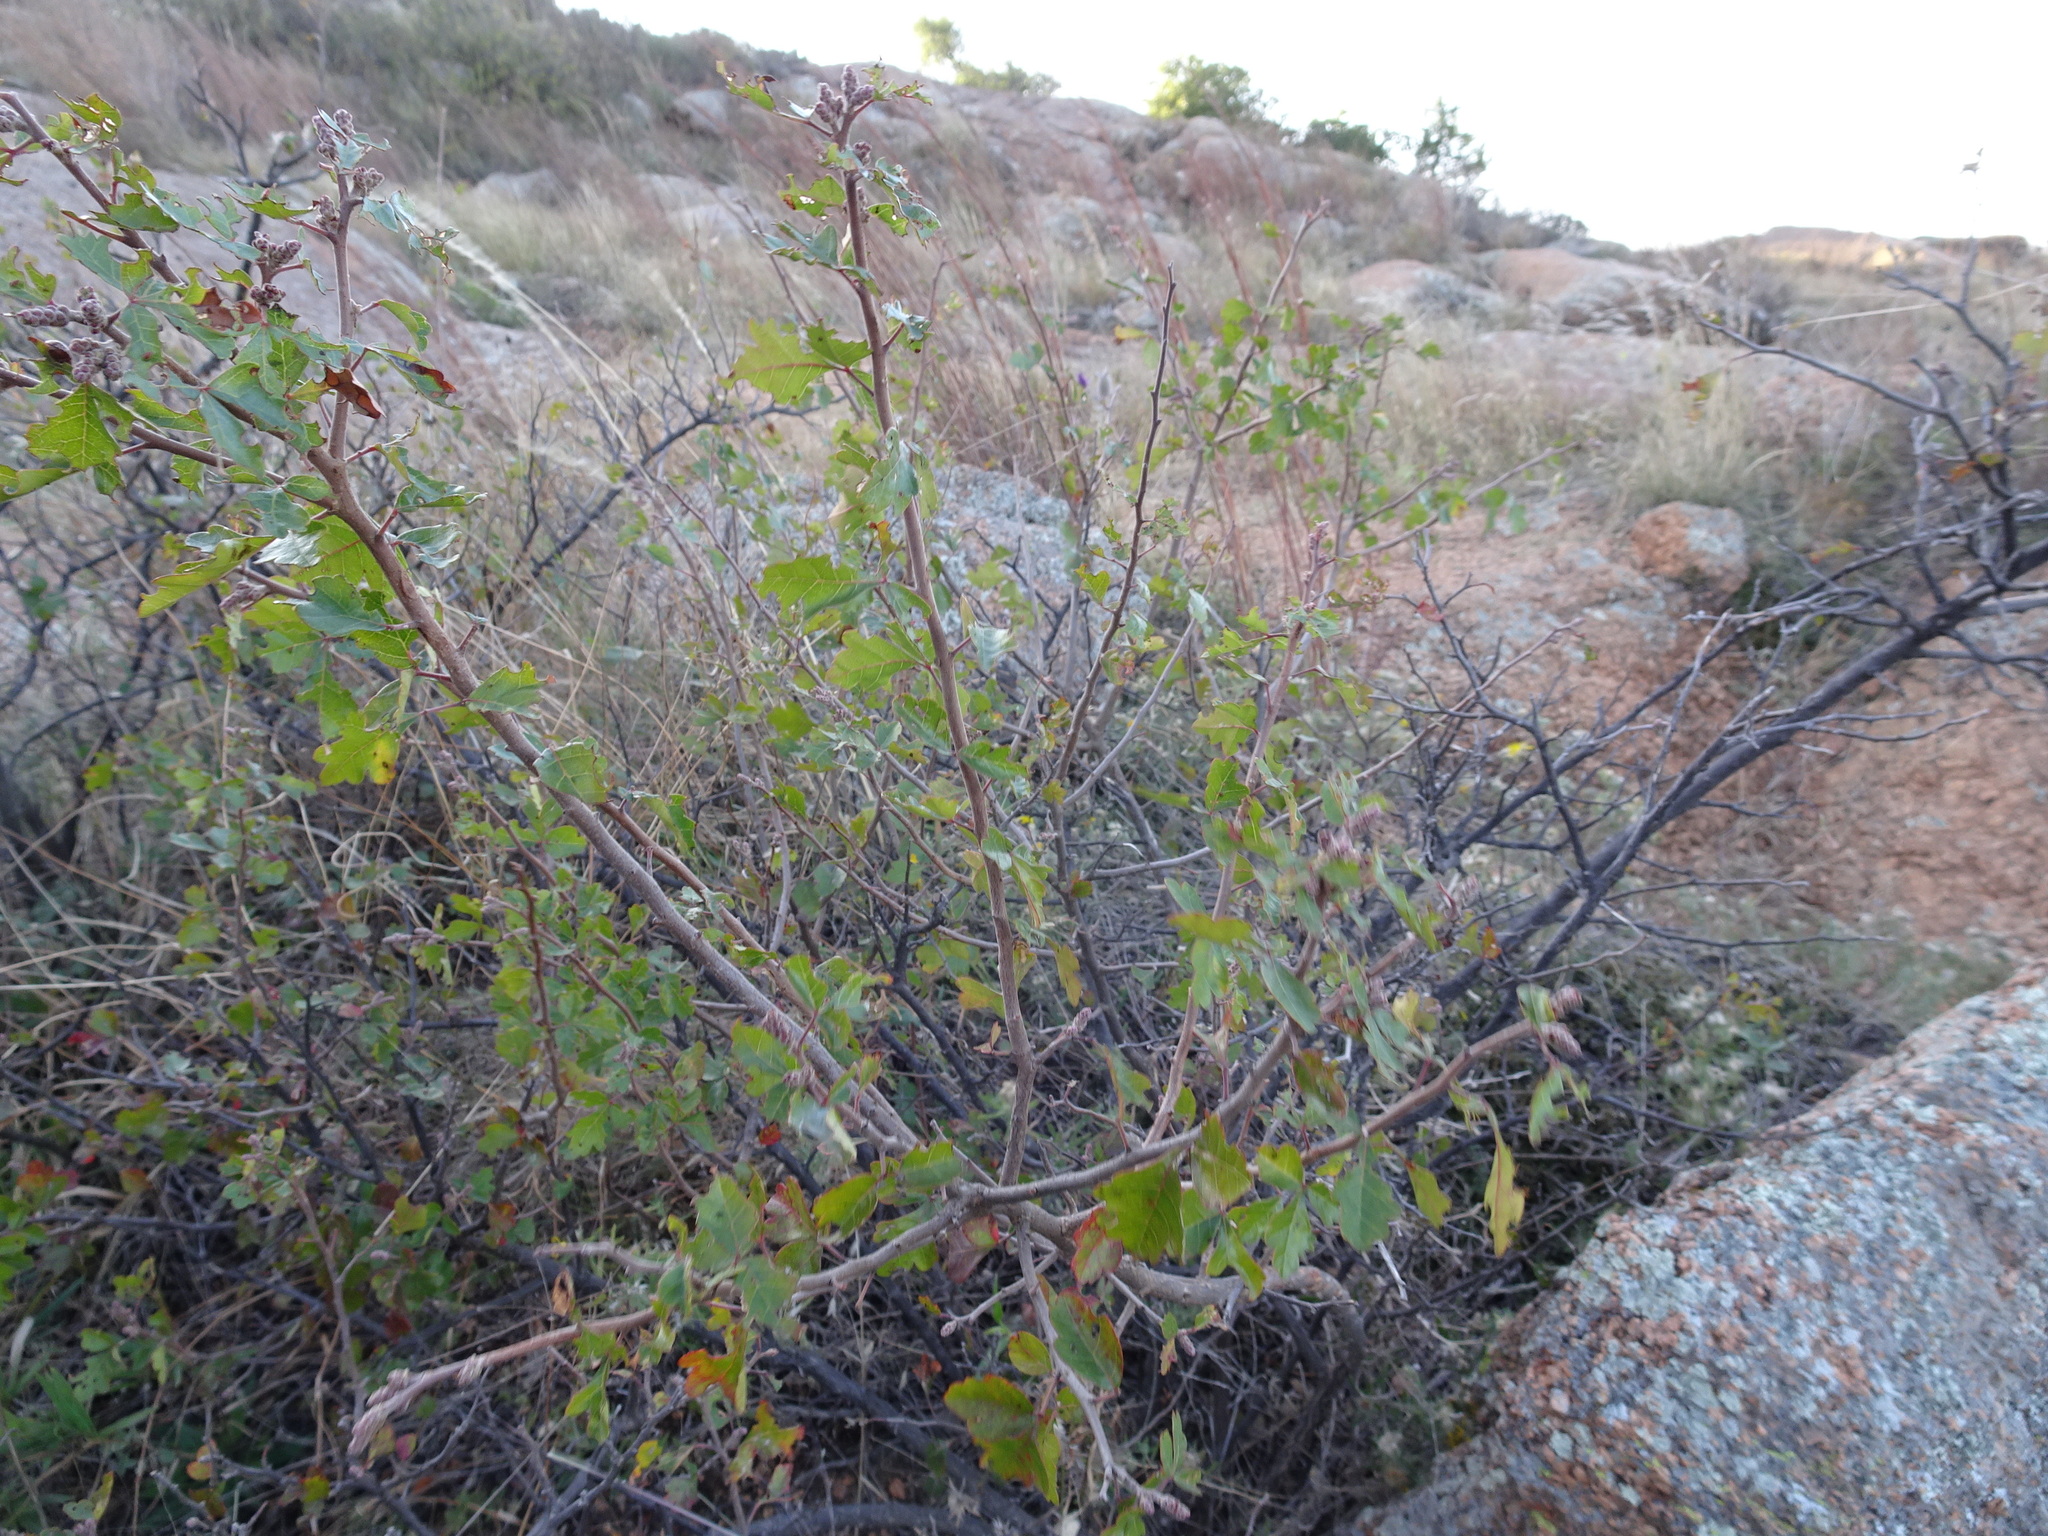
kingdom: Plantae
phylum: Tracheophyta
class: Magnoliopsida
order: Sapindales
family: Anacardiaceae
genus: Rhus
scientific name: Rhus aromatica
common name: Aromatic sumac
